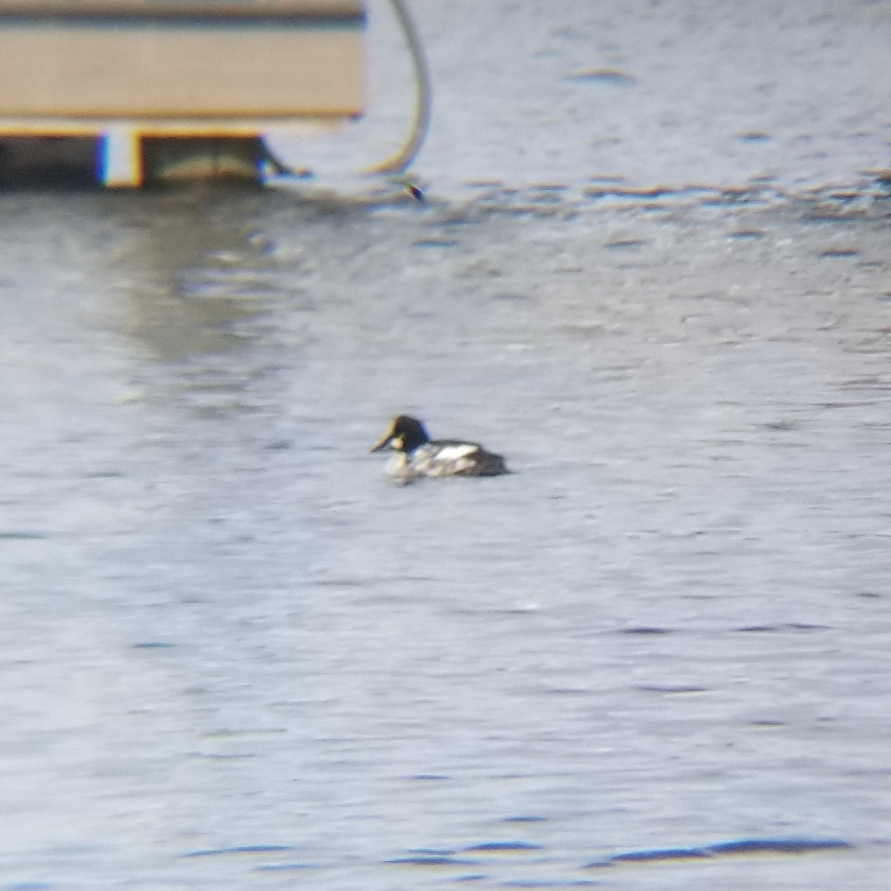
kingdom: Animalia
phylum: Chordata
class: Aves
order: Anseriformes
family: Anatidae
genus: Bucephala
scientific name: Bucephala clangula
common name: Common goldeneye
